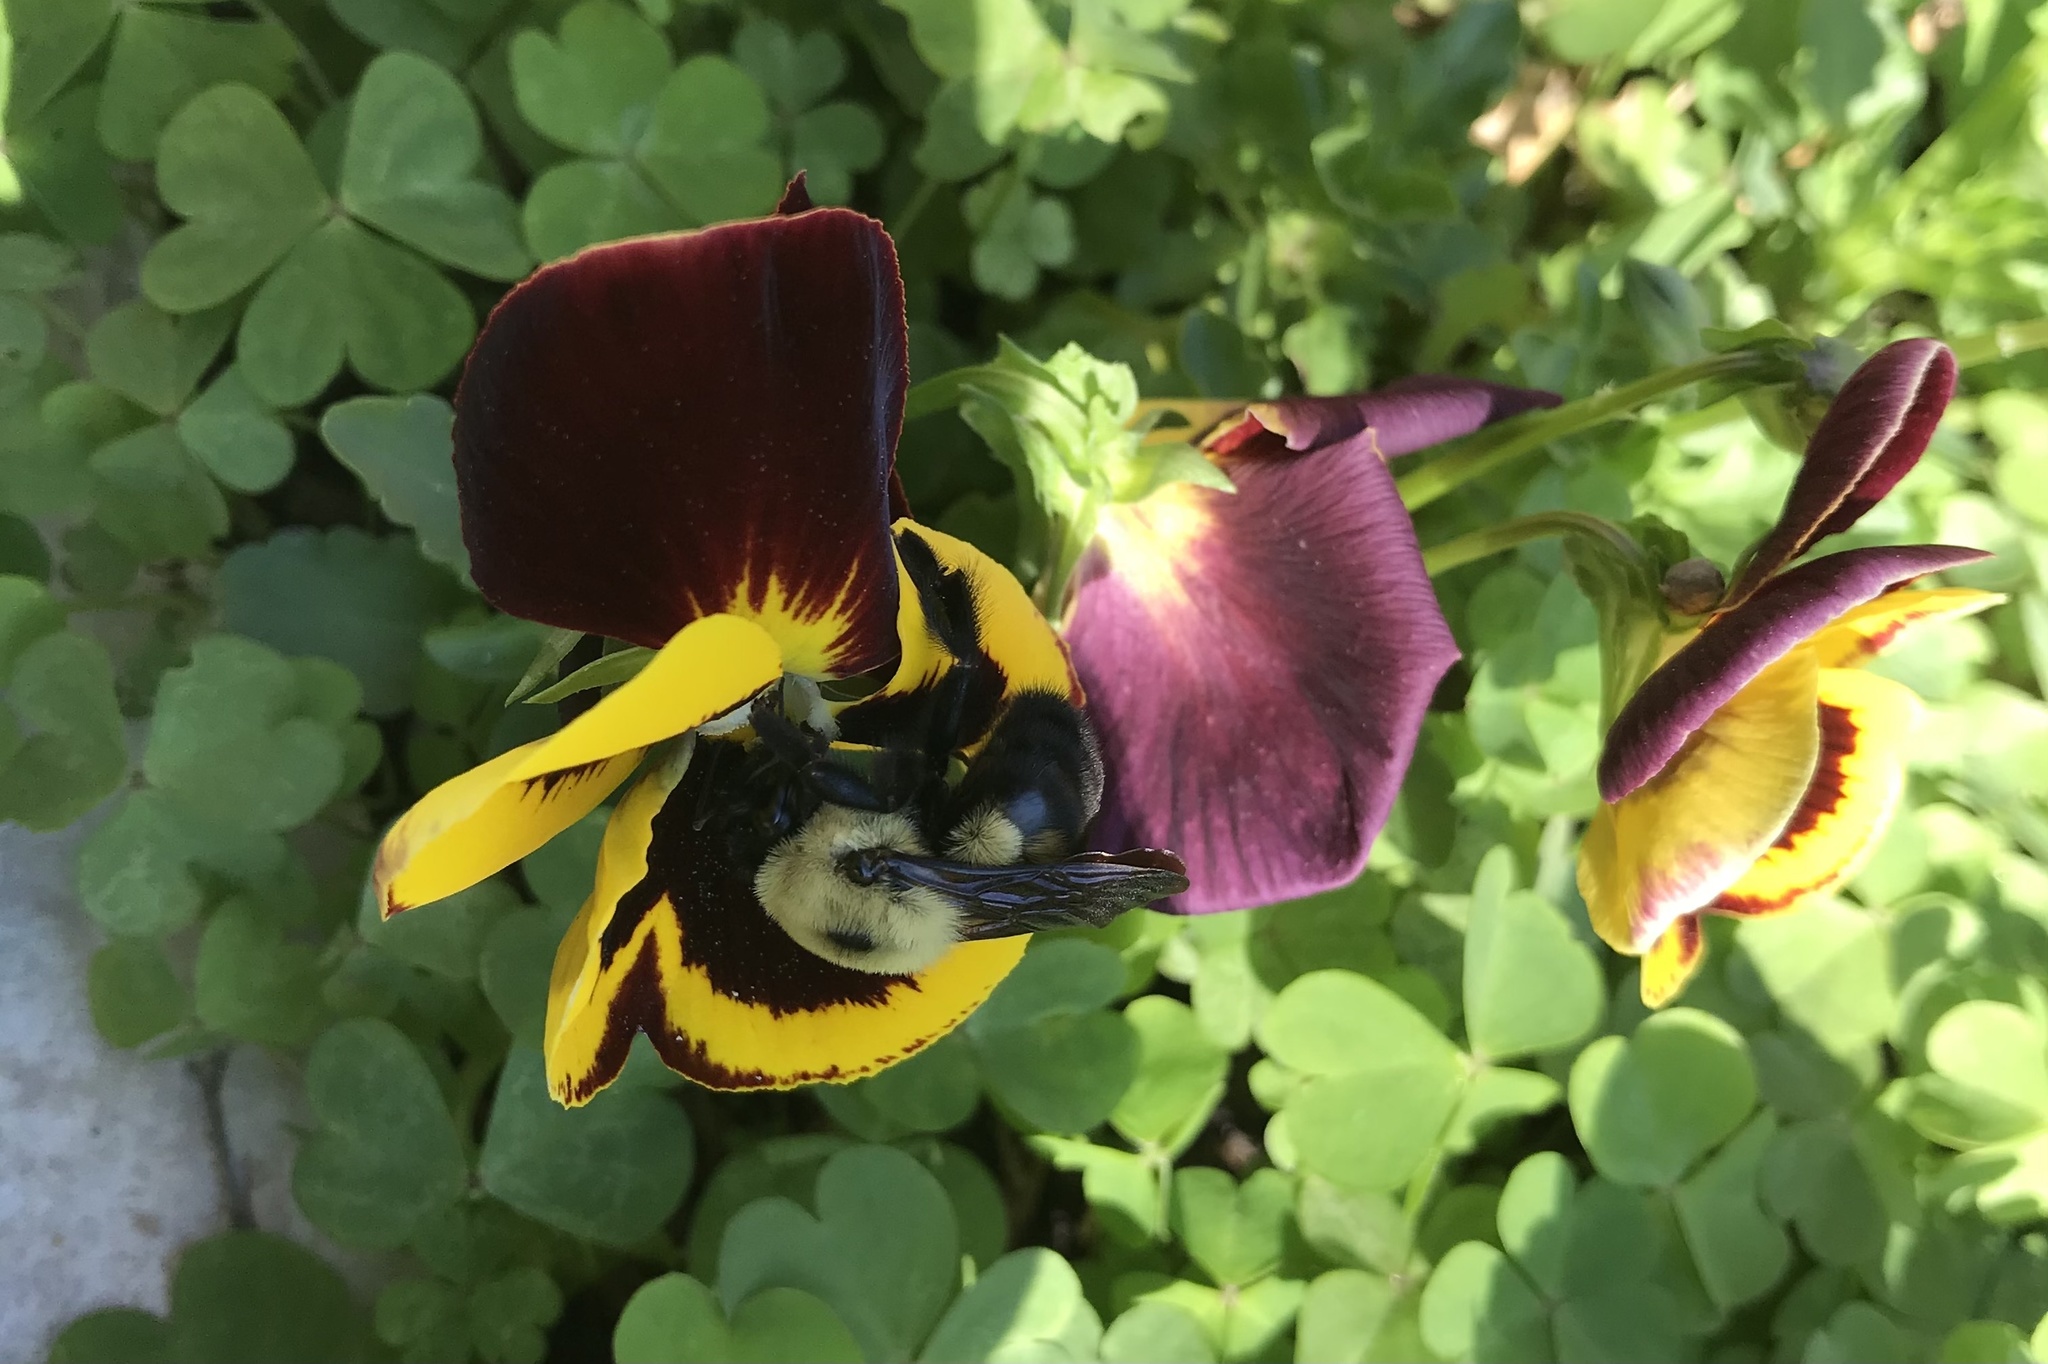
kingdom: Animalia
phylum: Arthropoda
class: Insecta
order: Hymenoptera
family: Apidae
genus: Bombus
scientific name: Bombus griseocollis
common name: Brown-belted bumble bee
